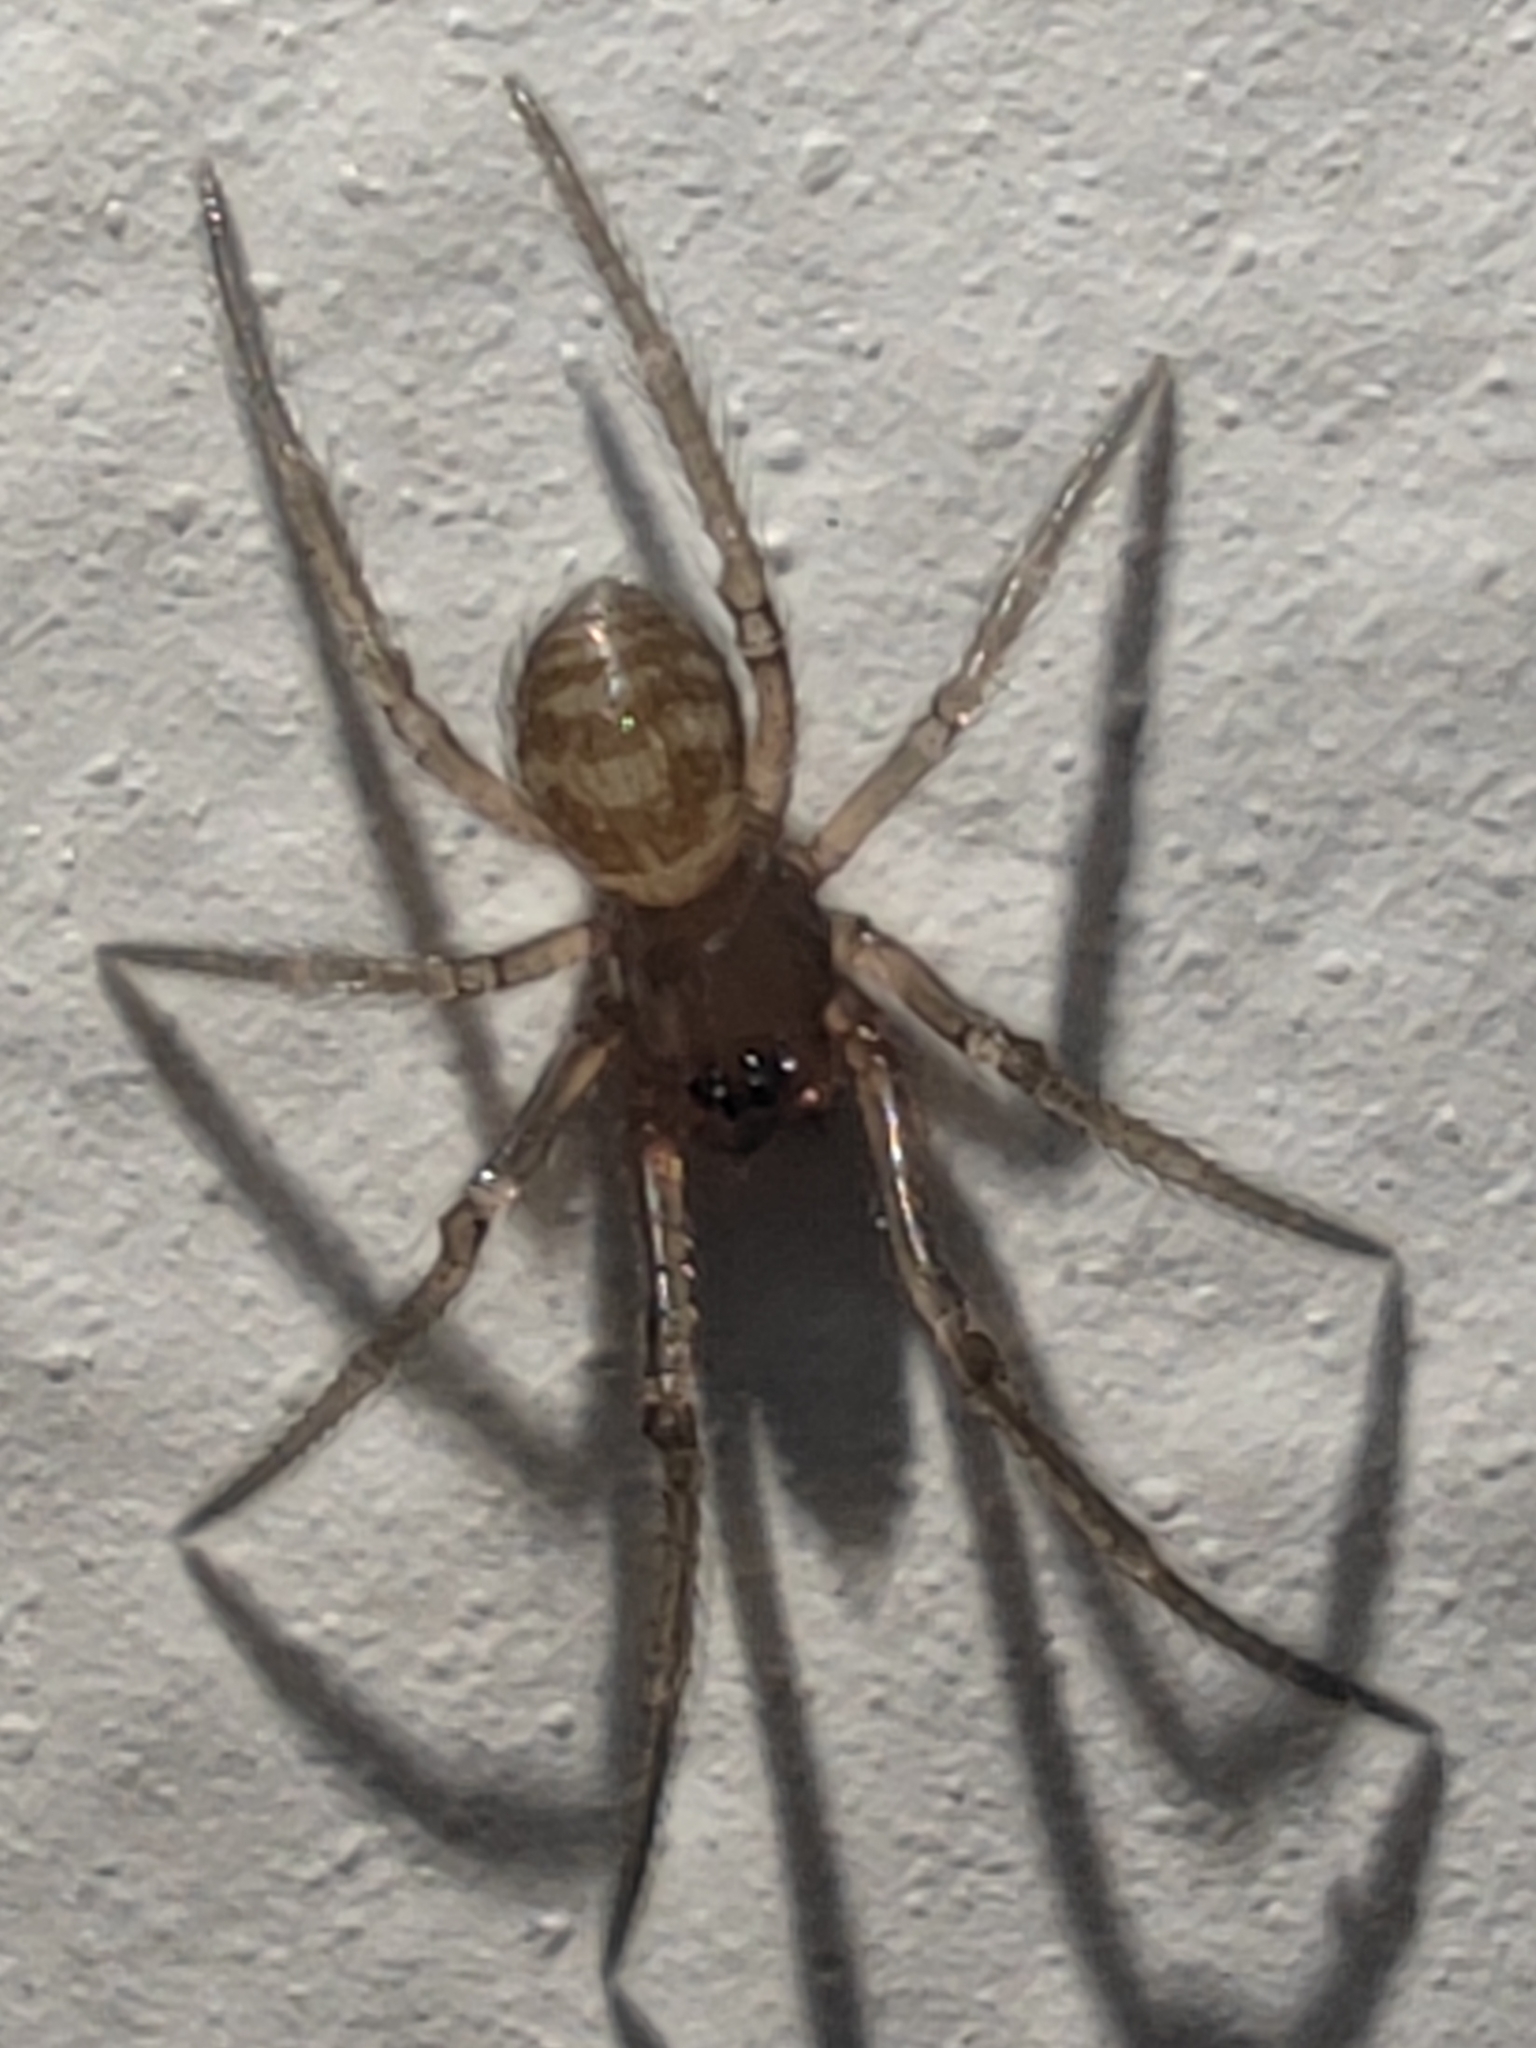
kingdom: Animalia
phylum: Arthropoda
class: Arachnida
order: Araneae
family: Theridiidae
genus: Steatoda
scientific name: Steatoda grossa
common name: False black widow
